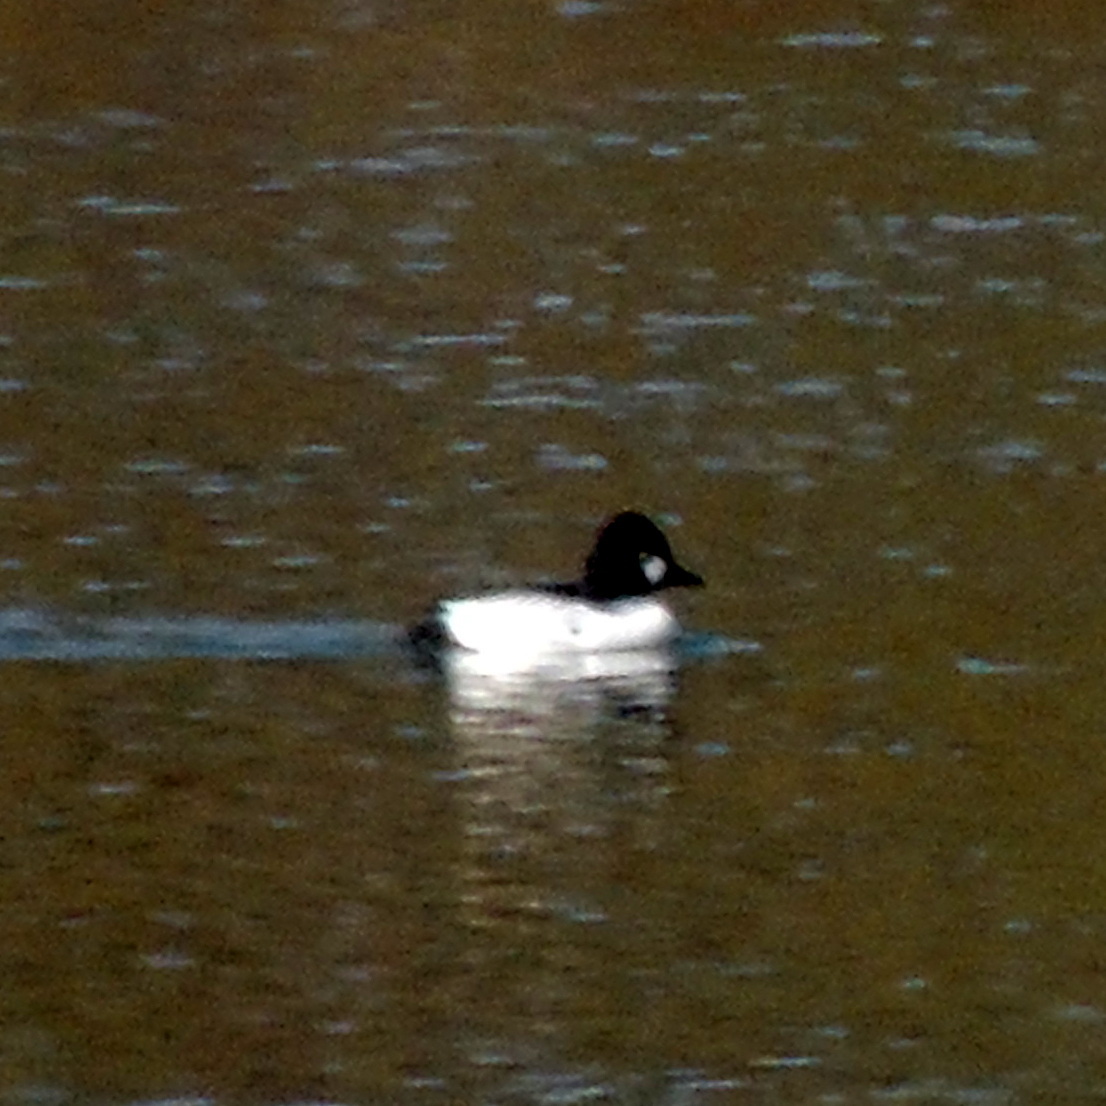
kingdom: Animalia
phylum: Chordata
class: Aves
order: Anseriformes
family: Anatidae
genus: Bucephala
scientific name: Bucephala clangula
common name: Common goldeneye
